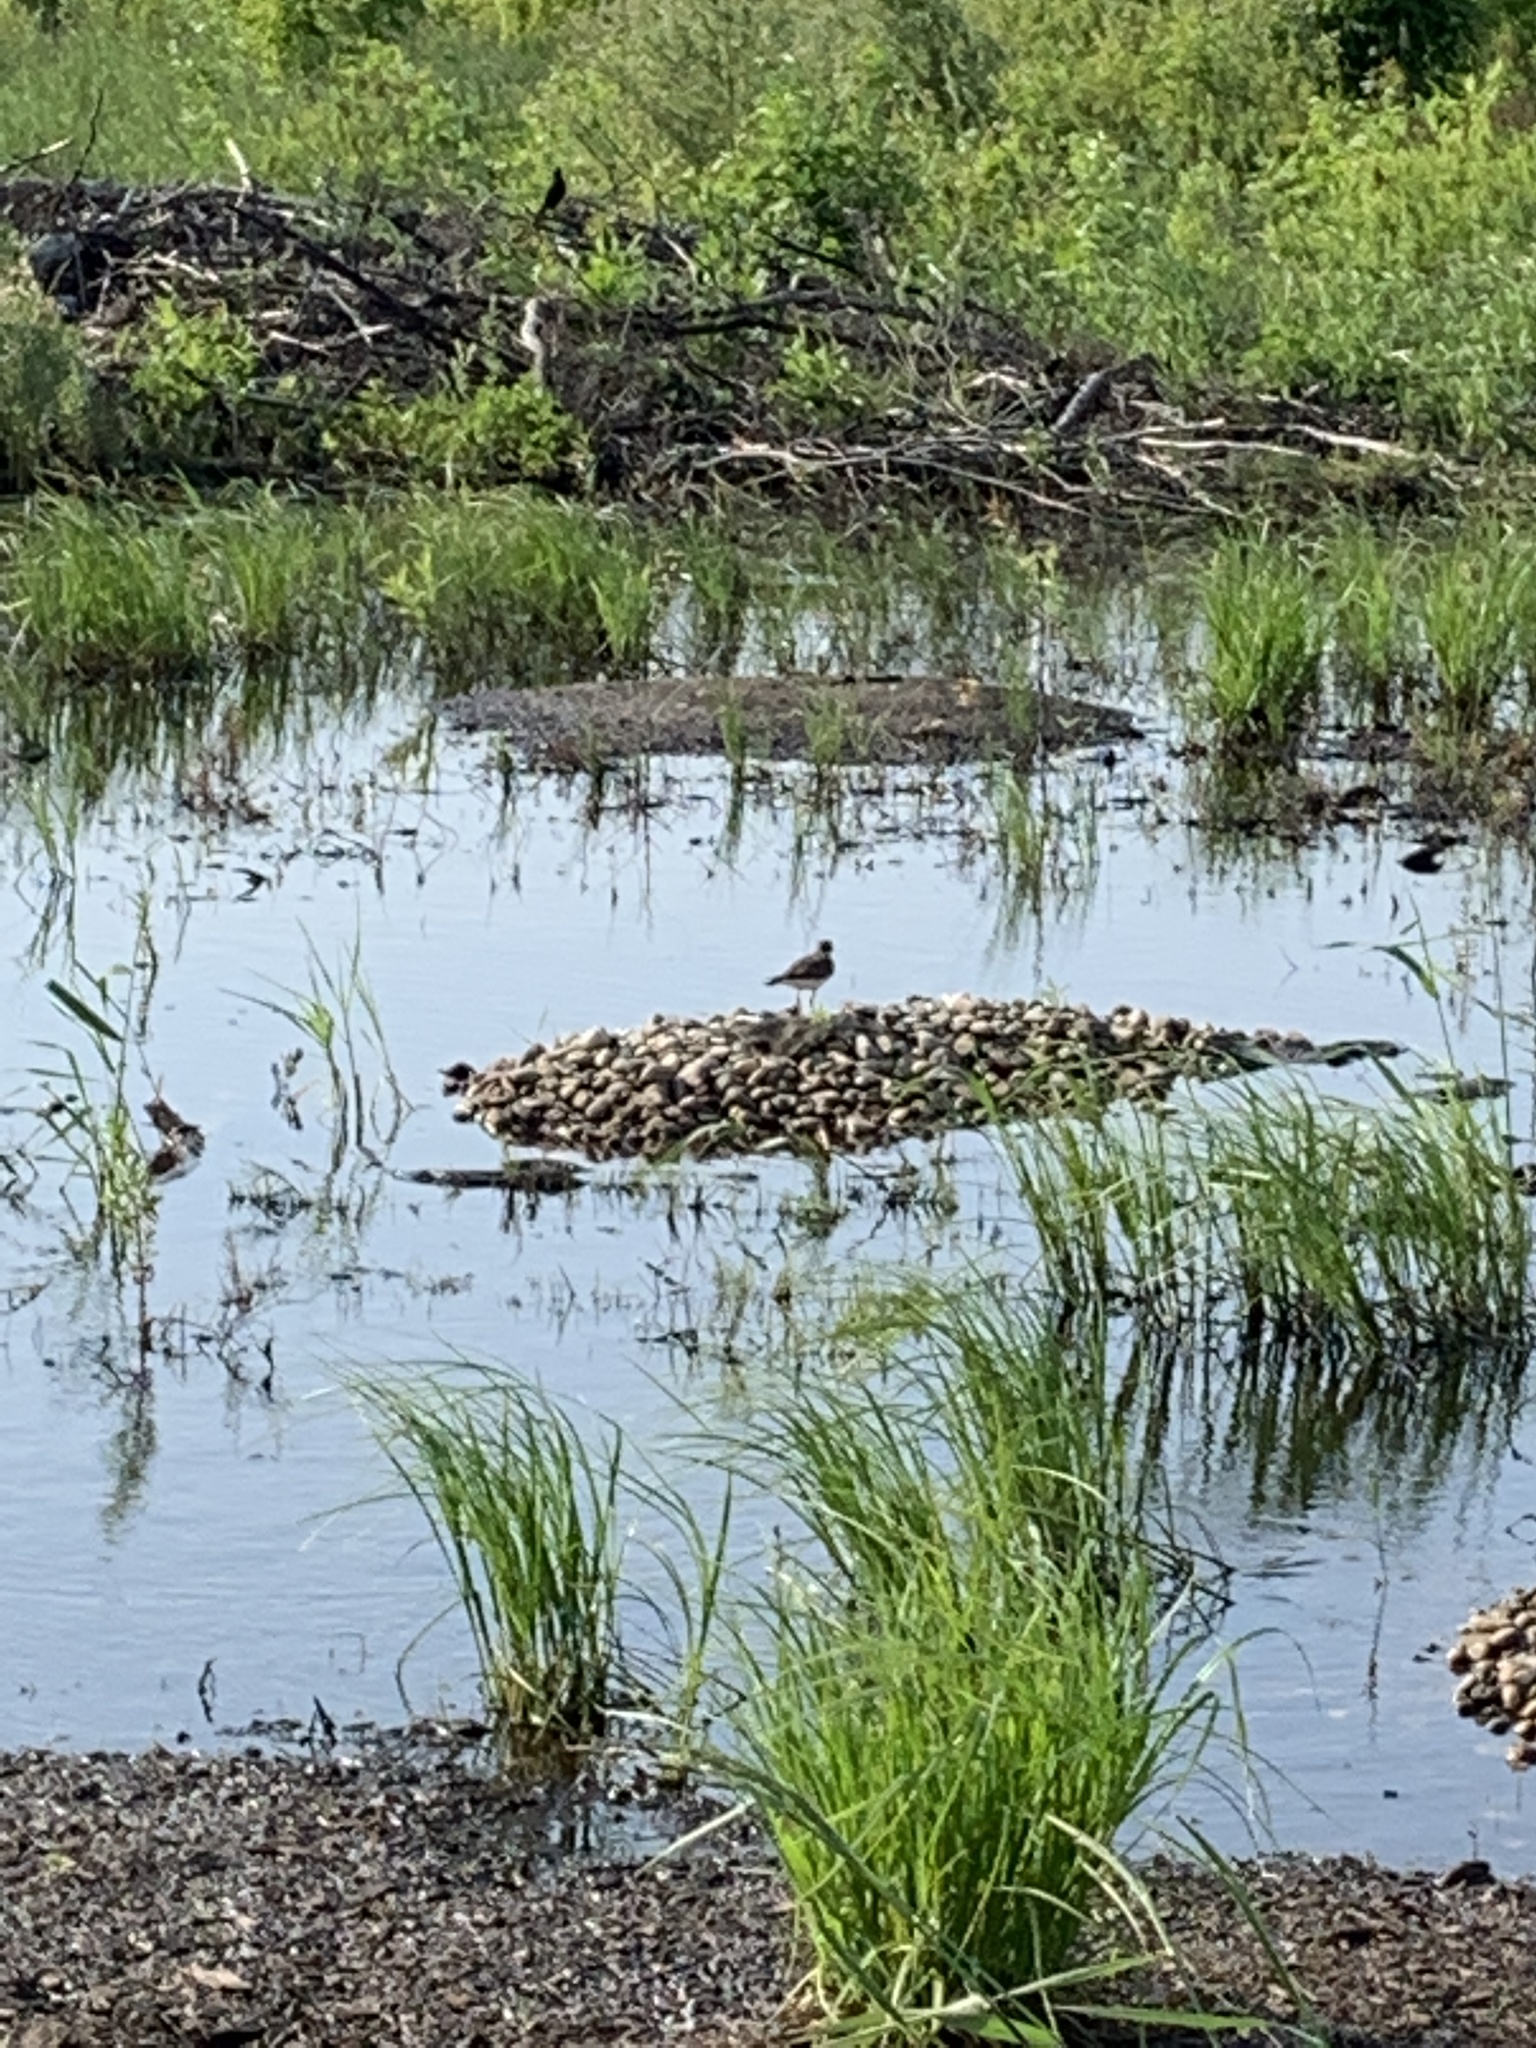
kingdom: Animalia
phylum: Chordata
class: Aves
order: Charadriiformes
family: Charadriidae
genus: Charadrius
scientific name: Charadrius vociferus
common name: Killdeer
